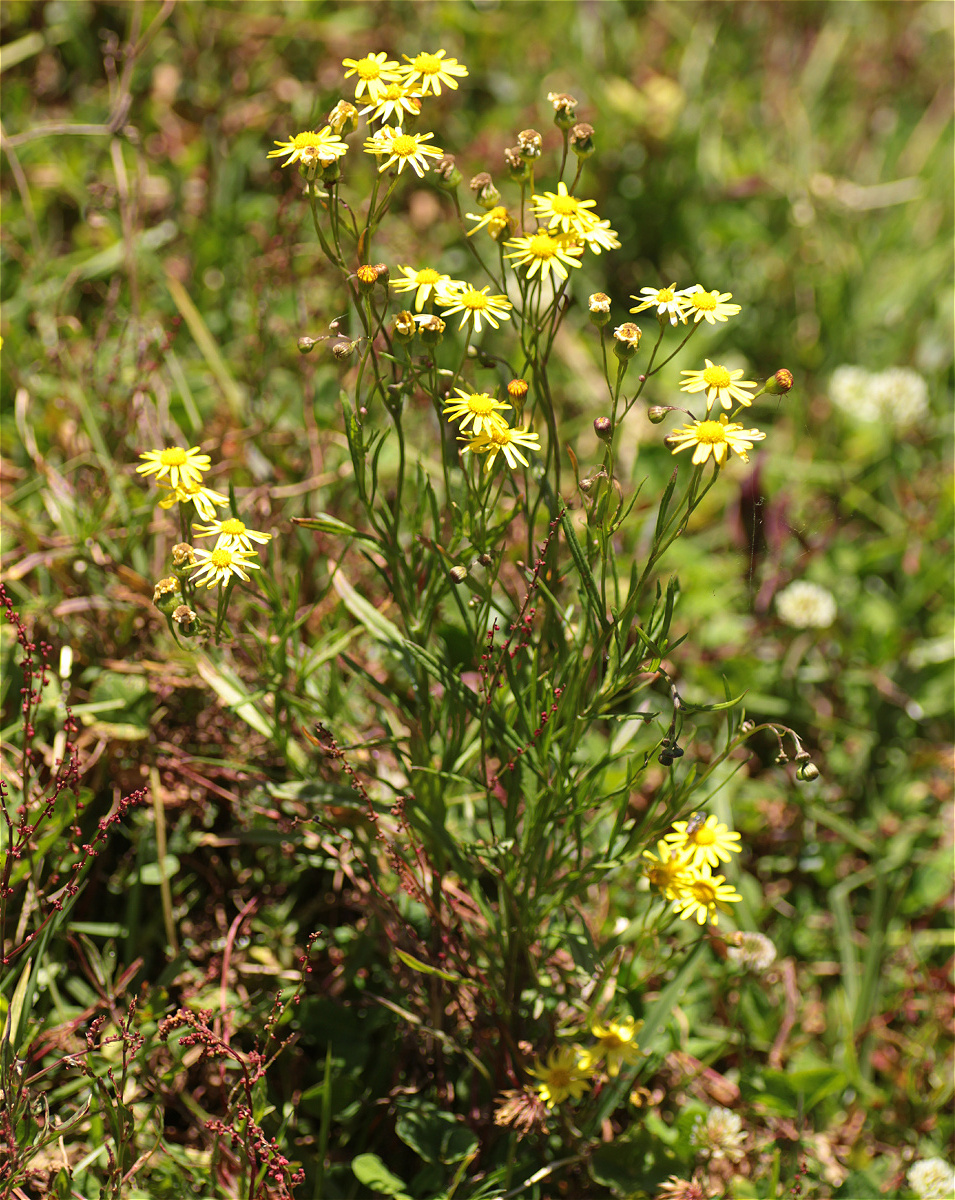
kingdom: Plantae
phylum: Tracheophyta
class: Magnoliopsida
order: Asterales
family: Asteraceae
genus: Senecio
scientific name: Senecio madagascariensis
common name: Madagascar ragwort
